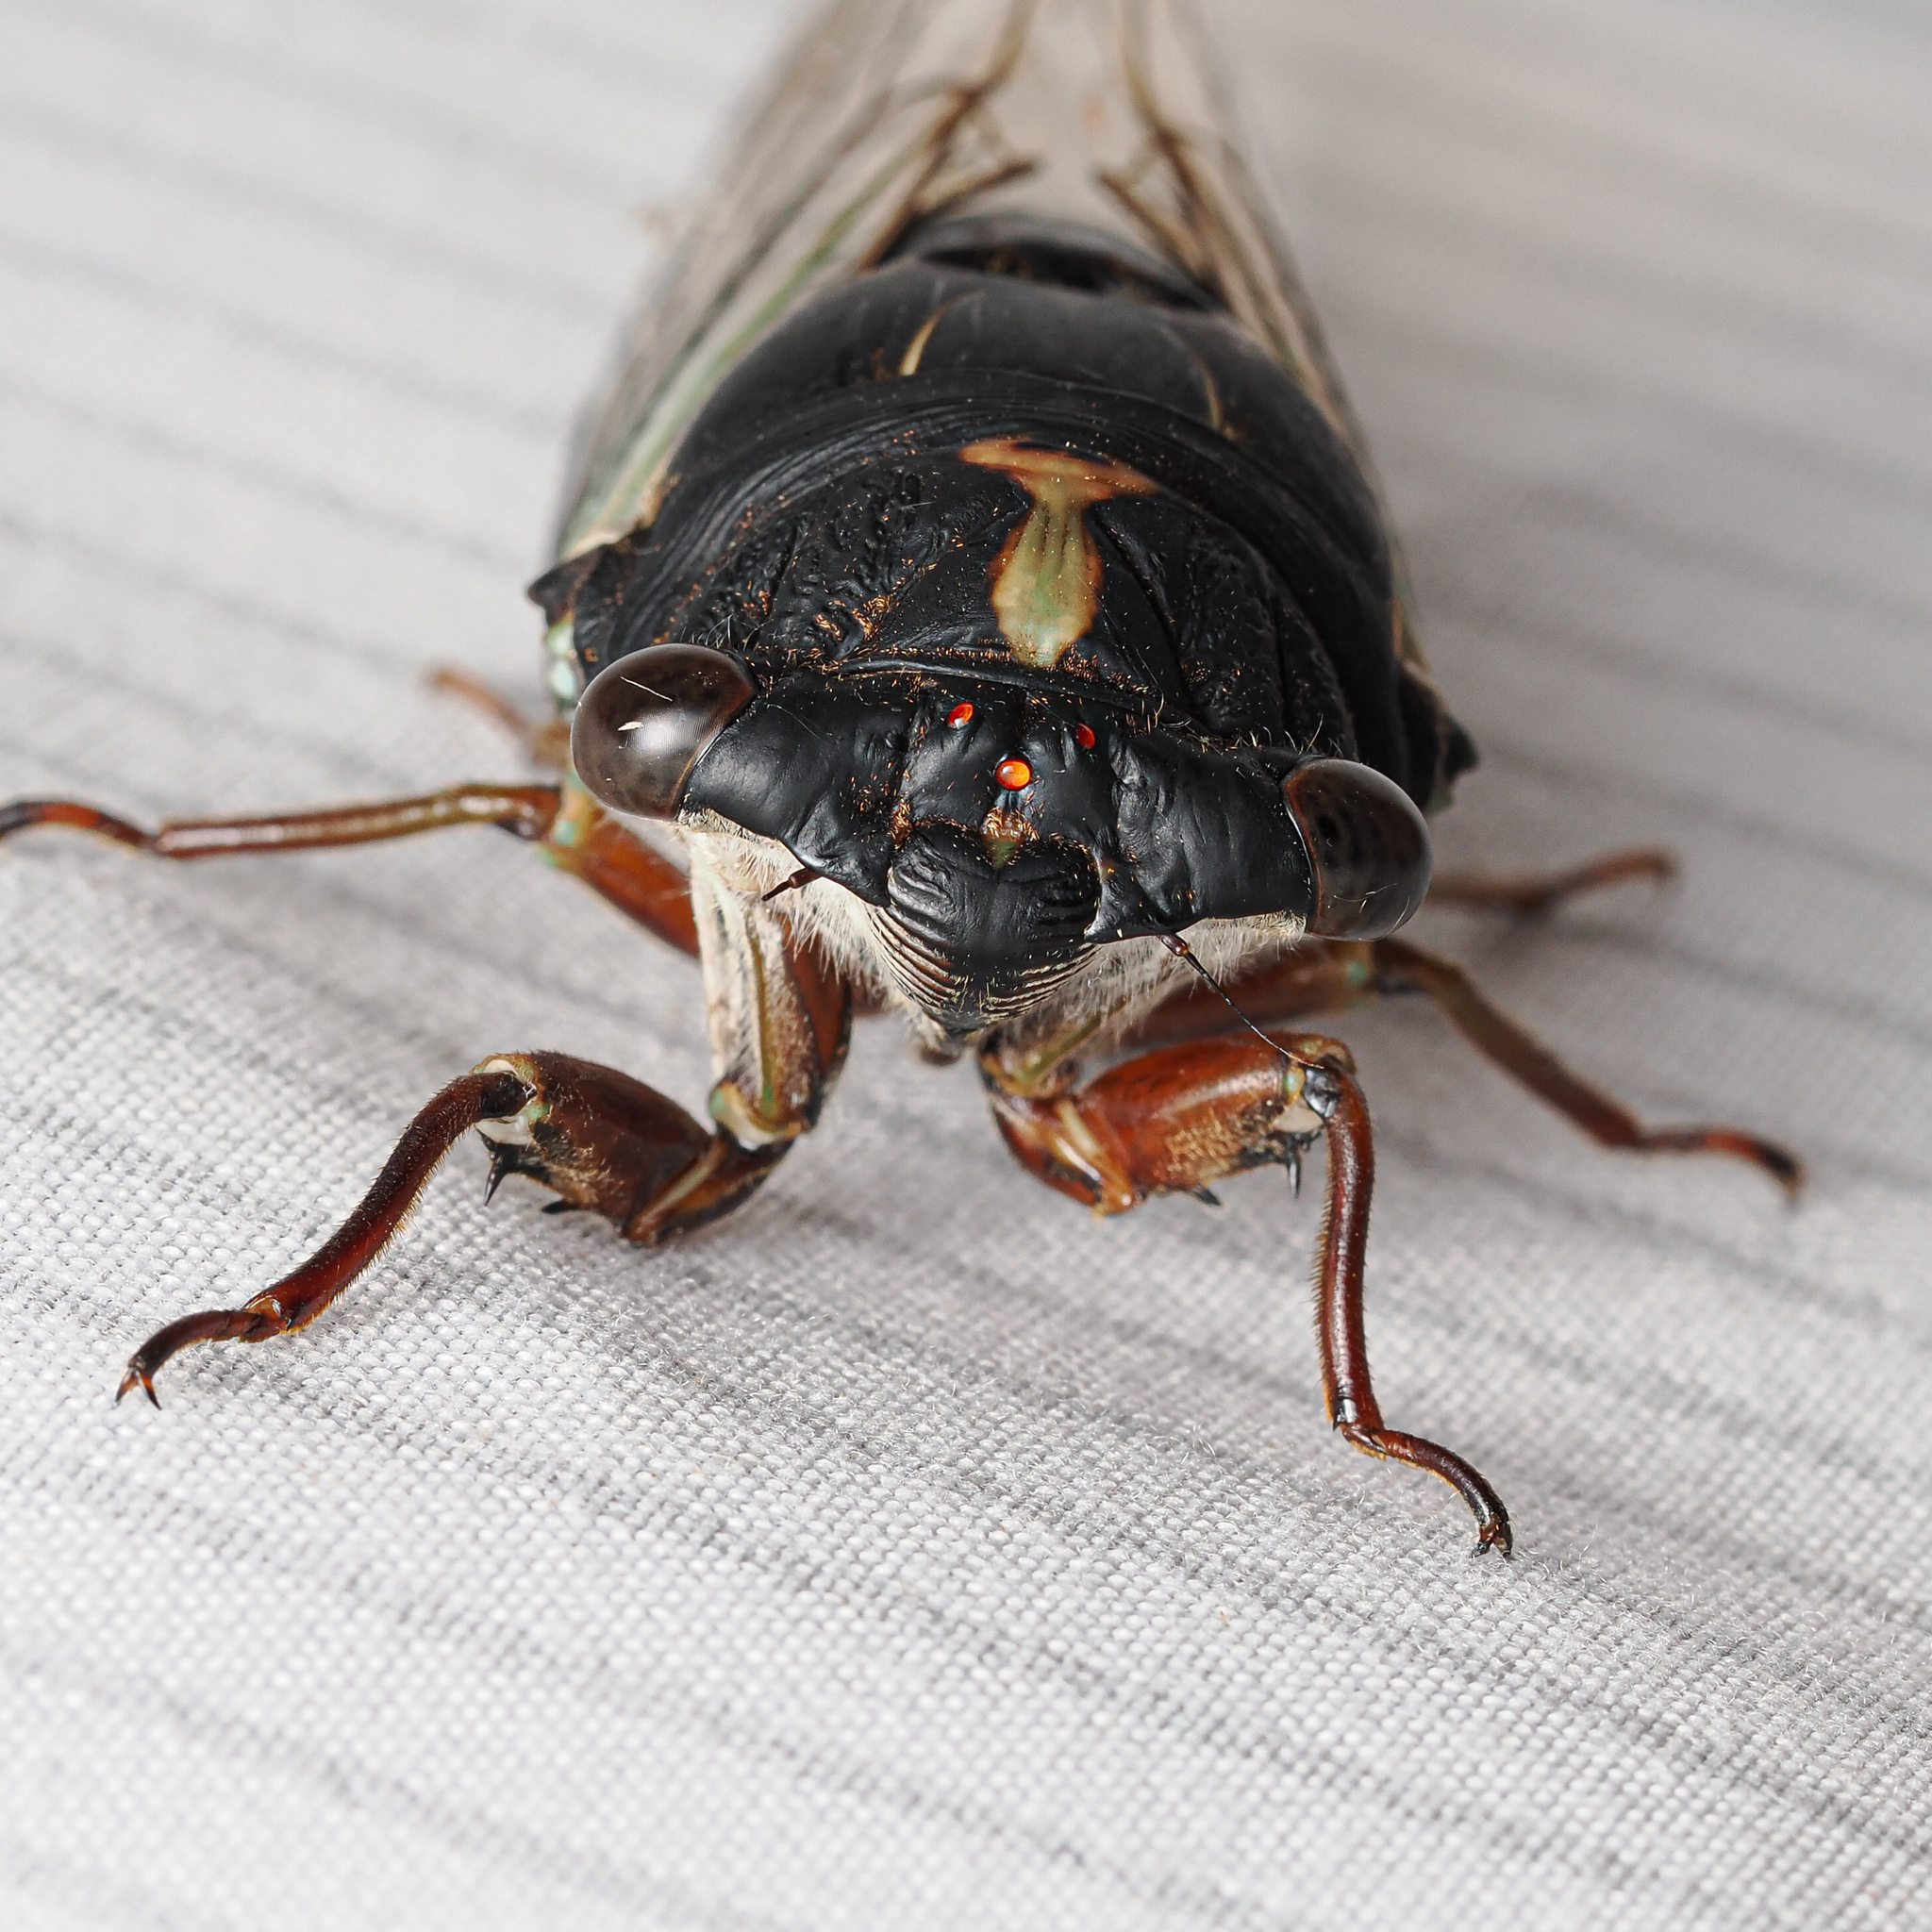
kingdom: Animalia
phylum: Arthropoda
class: Insecta
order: Hemiptera
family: Cicadidae
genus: Neotibicen
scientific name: Neotibicen lyricen
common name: Lyric cicada
